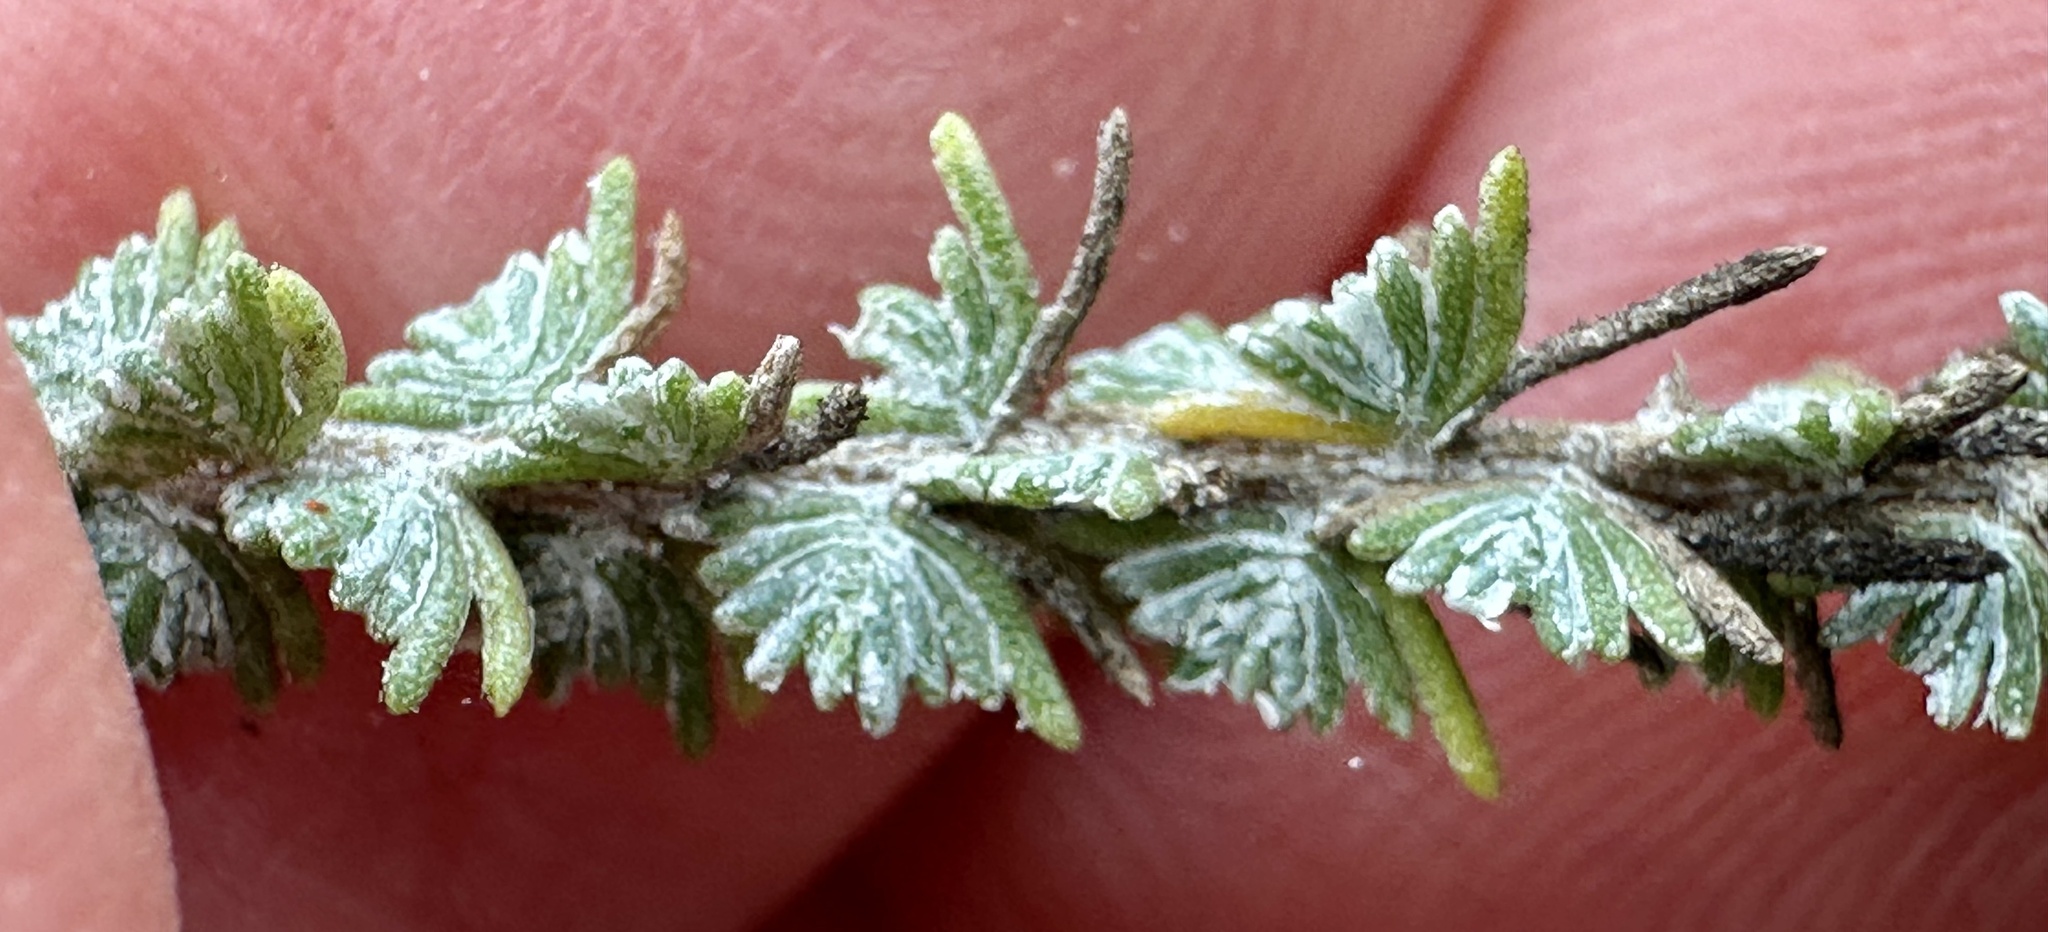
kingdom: Plantae
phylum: Tracheophyta
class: Magnoliopsida
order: Asterales
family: Asteraceae
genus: Ericameria
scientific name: Ericameria ericoides
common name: California goldenbush
